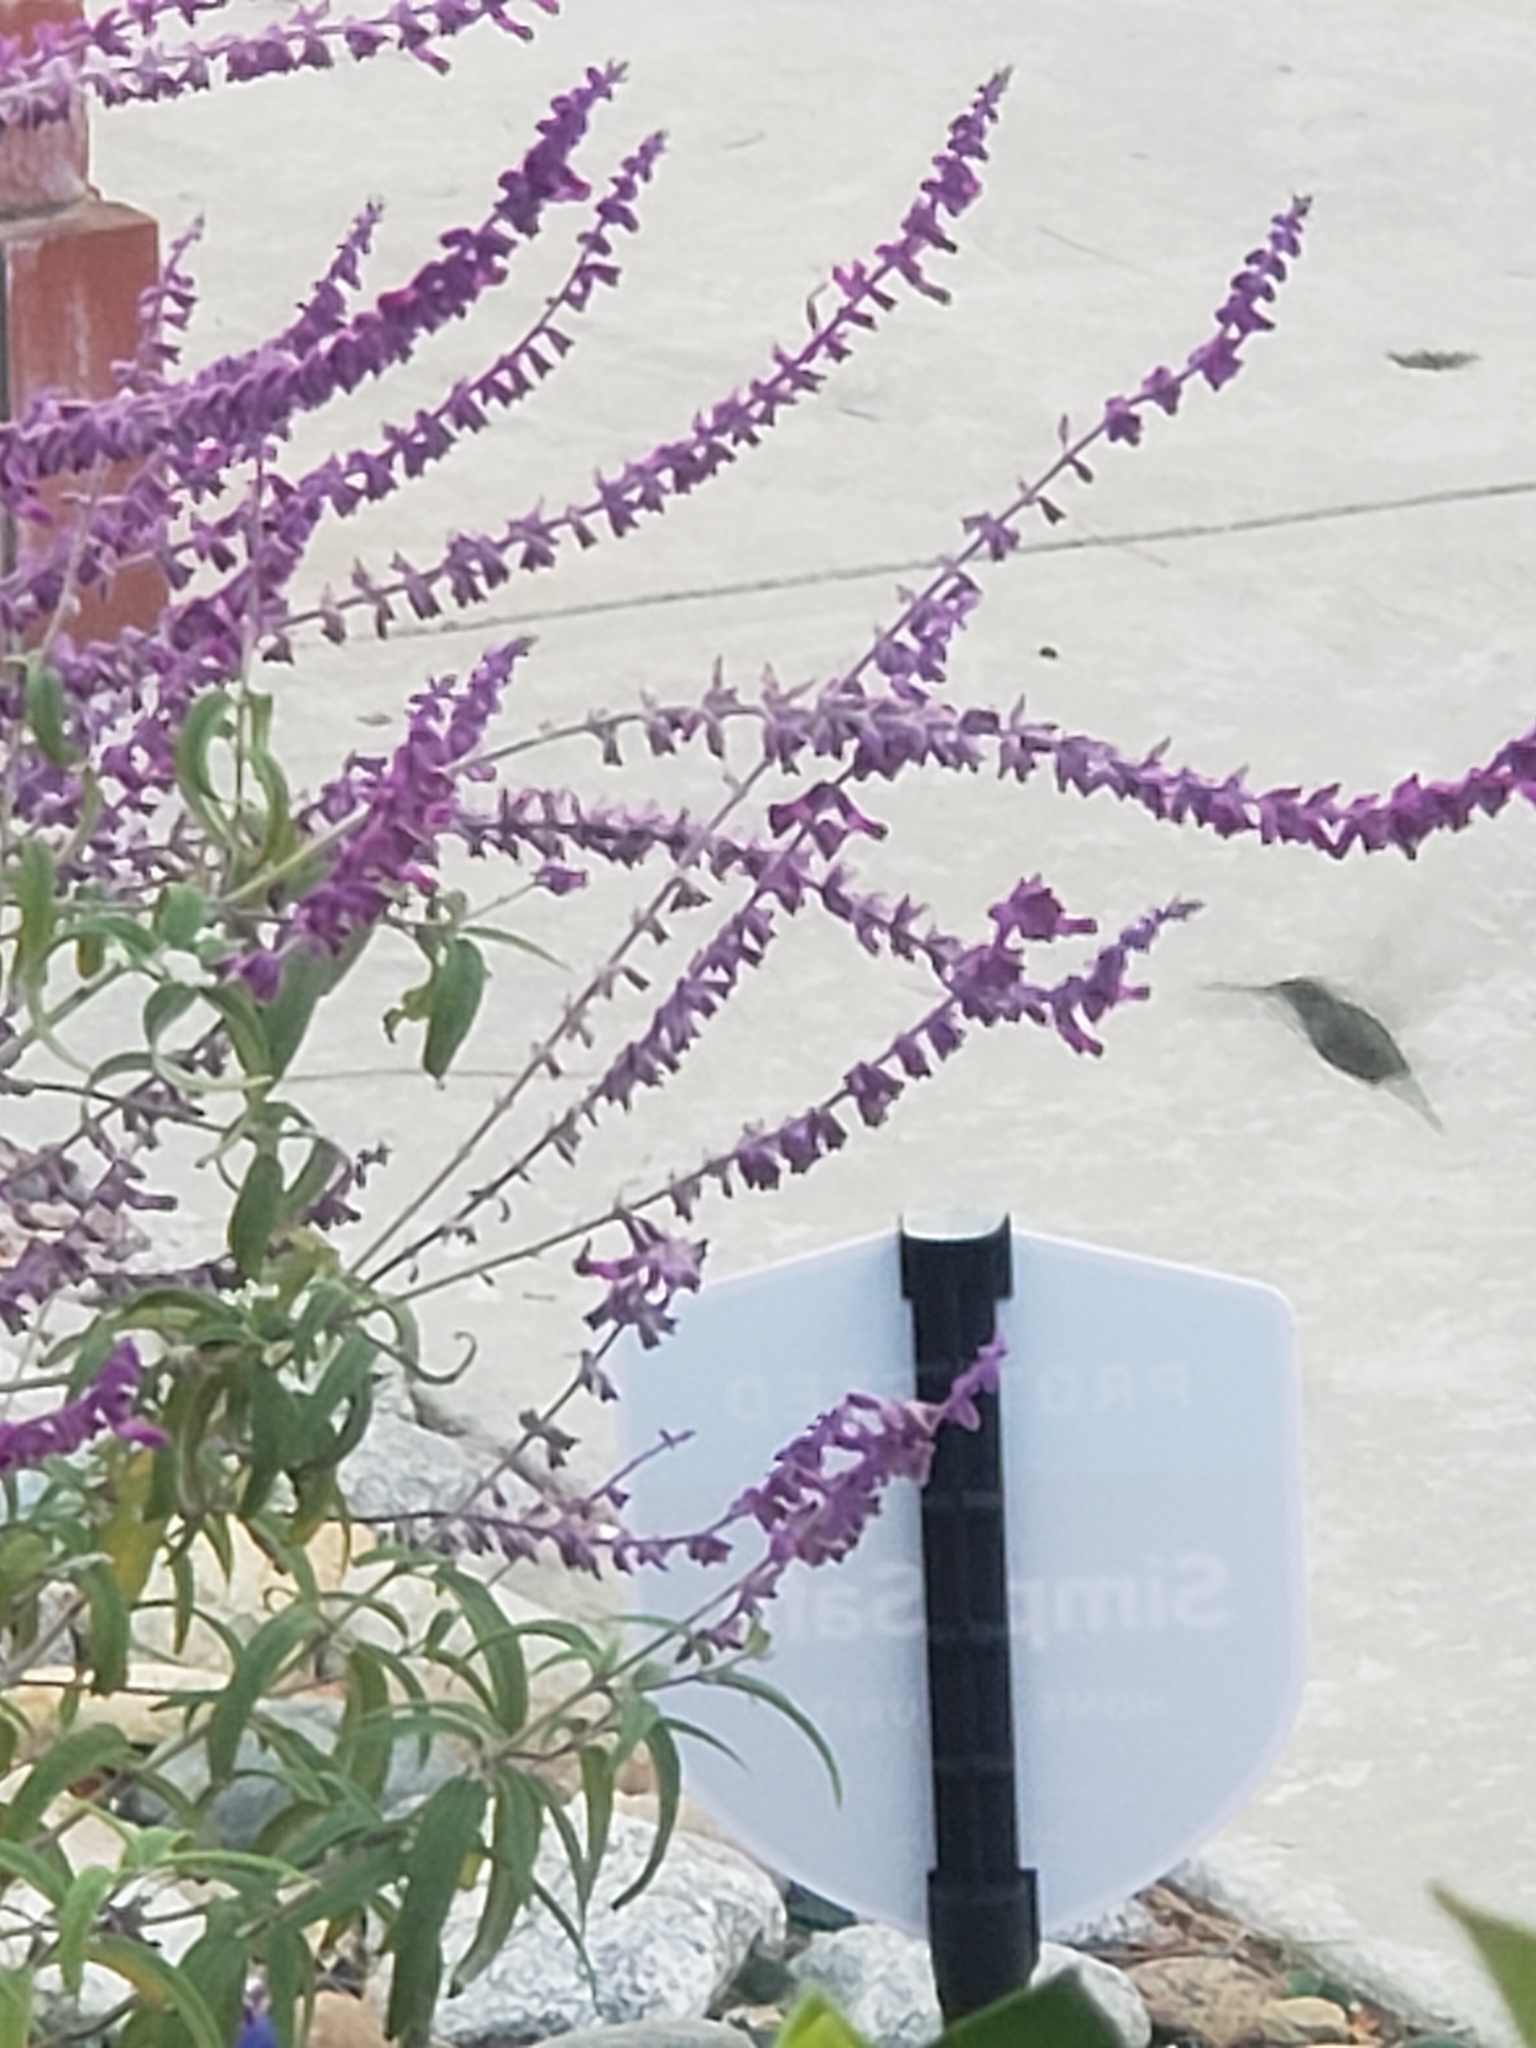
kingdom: Animalia
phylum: Chordata
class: Aves
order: Apodiformes
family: Trochilidae
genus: Calypte
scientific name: Calypte anna
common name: Anna's hummingbird
